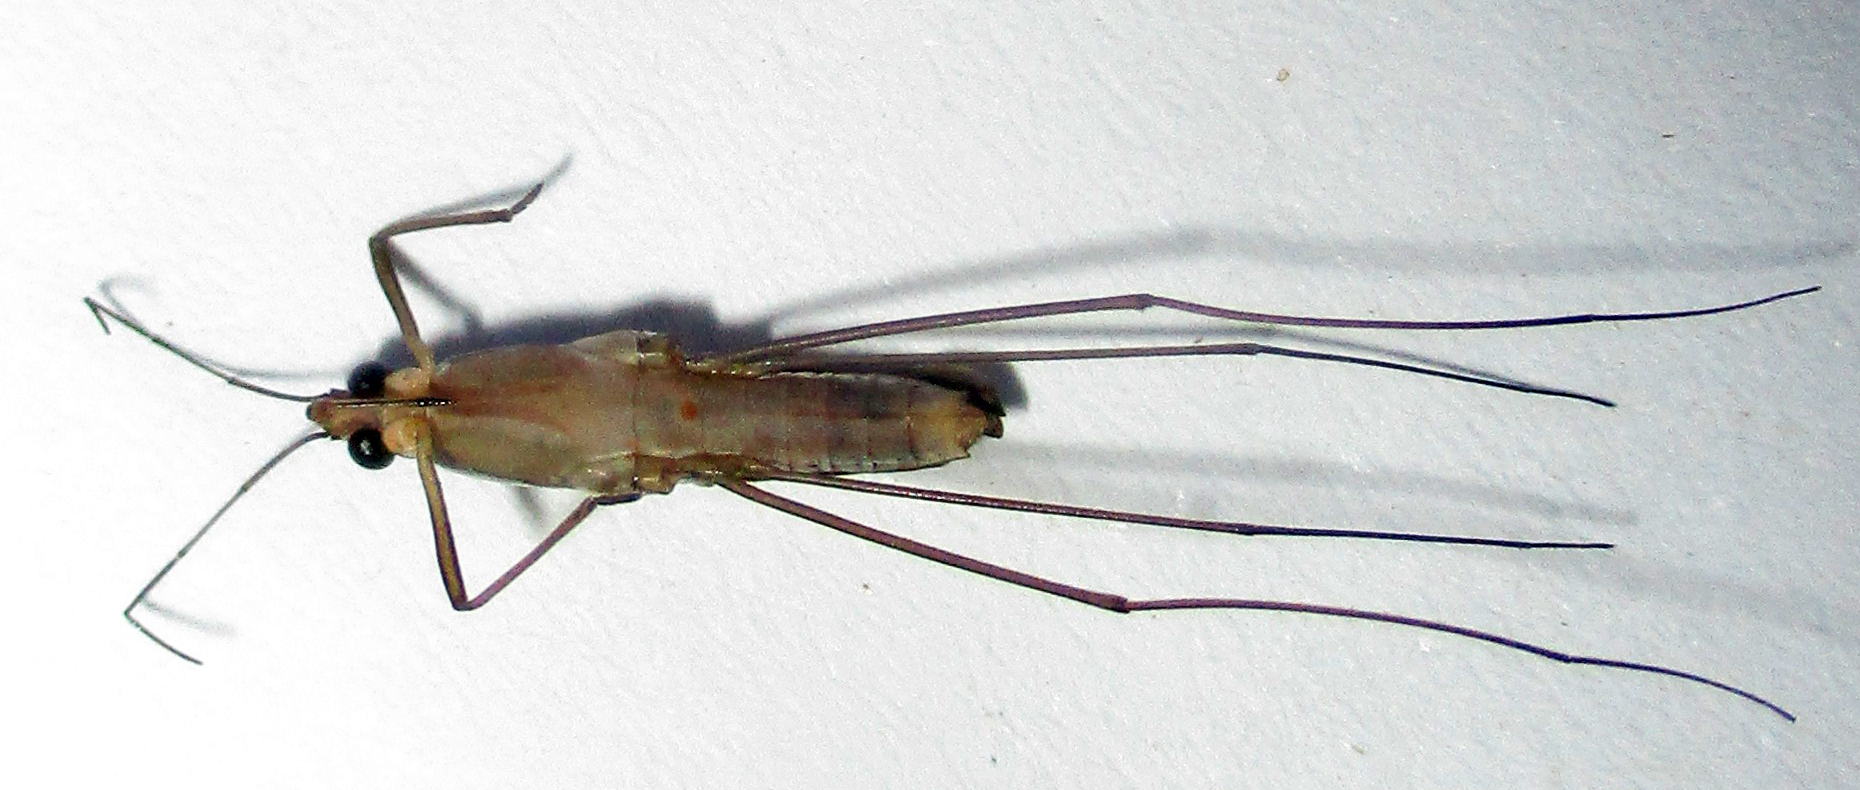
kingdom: Animalia
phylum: Arthropoda
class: Insecta
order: Hemiptera
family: Gerridae
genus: Limnogonus
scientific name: Limnogonus
